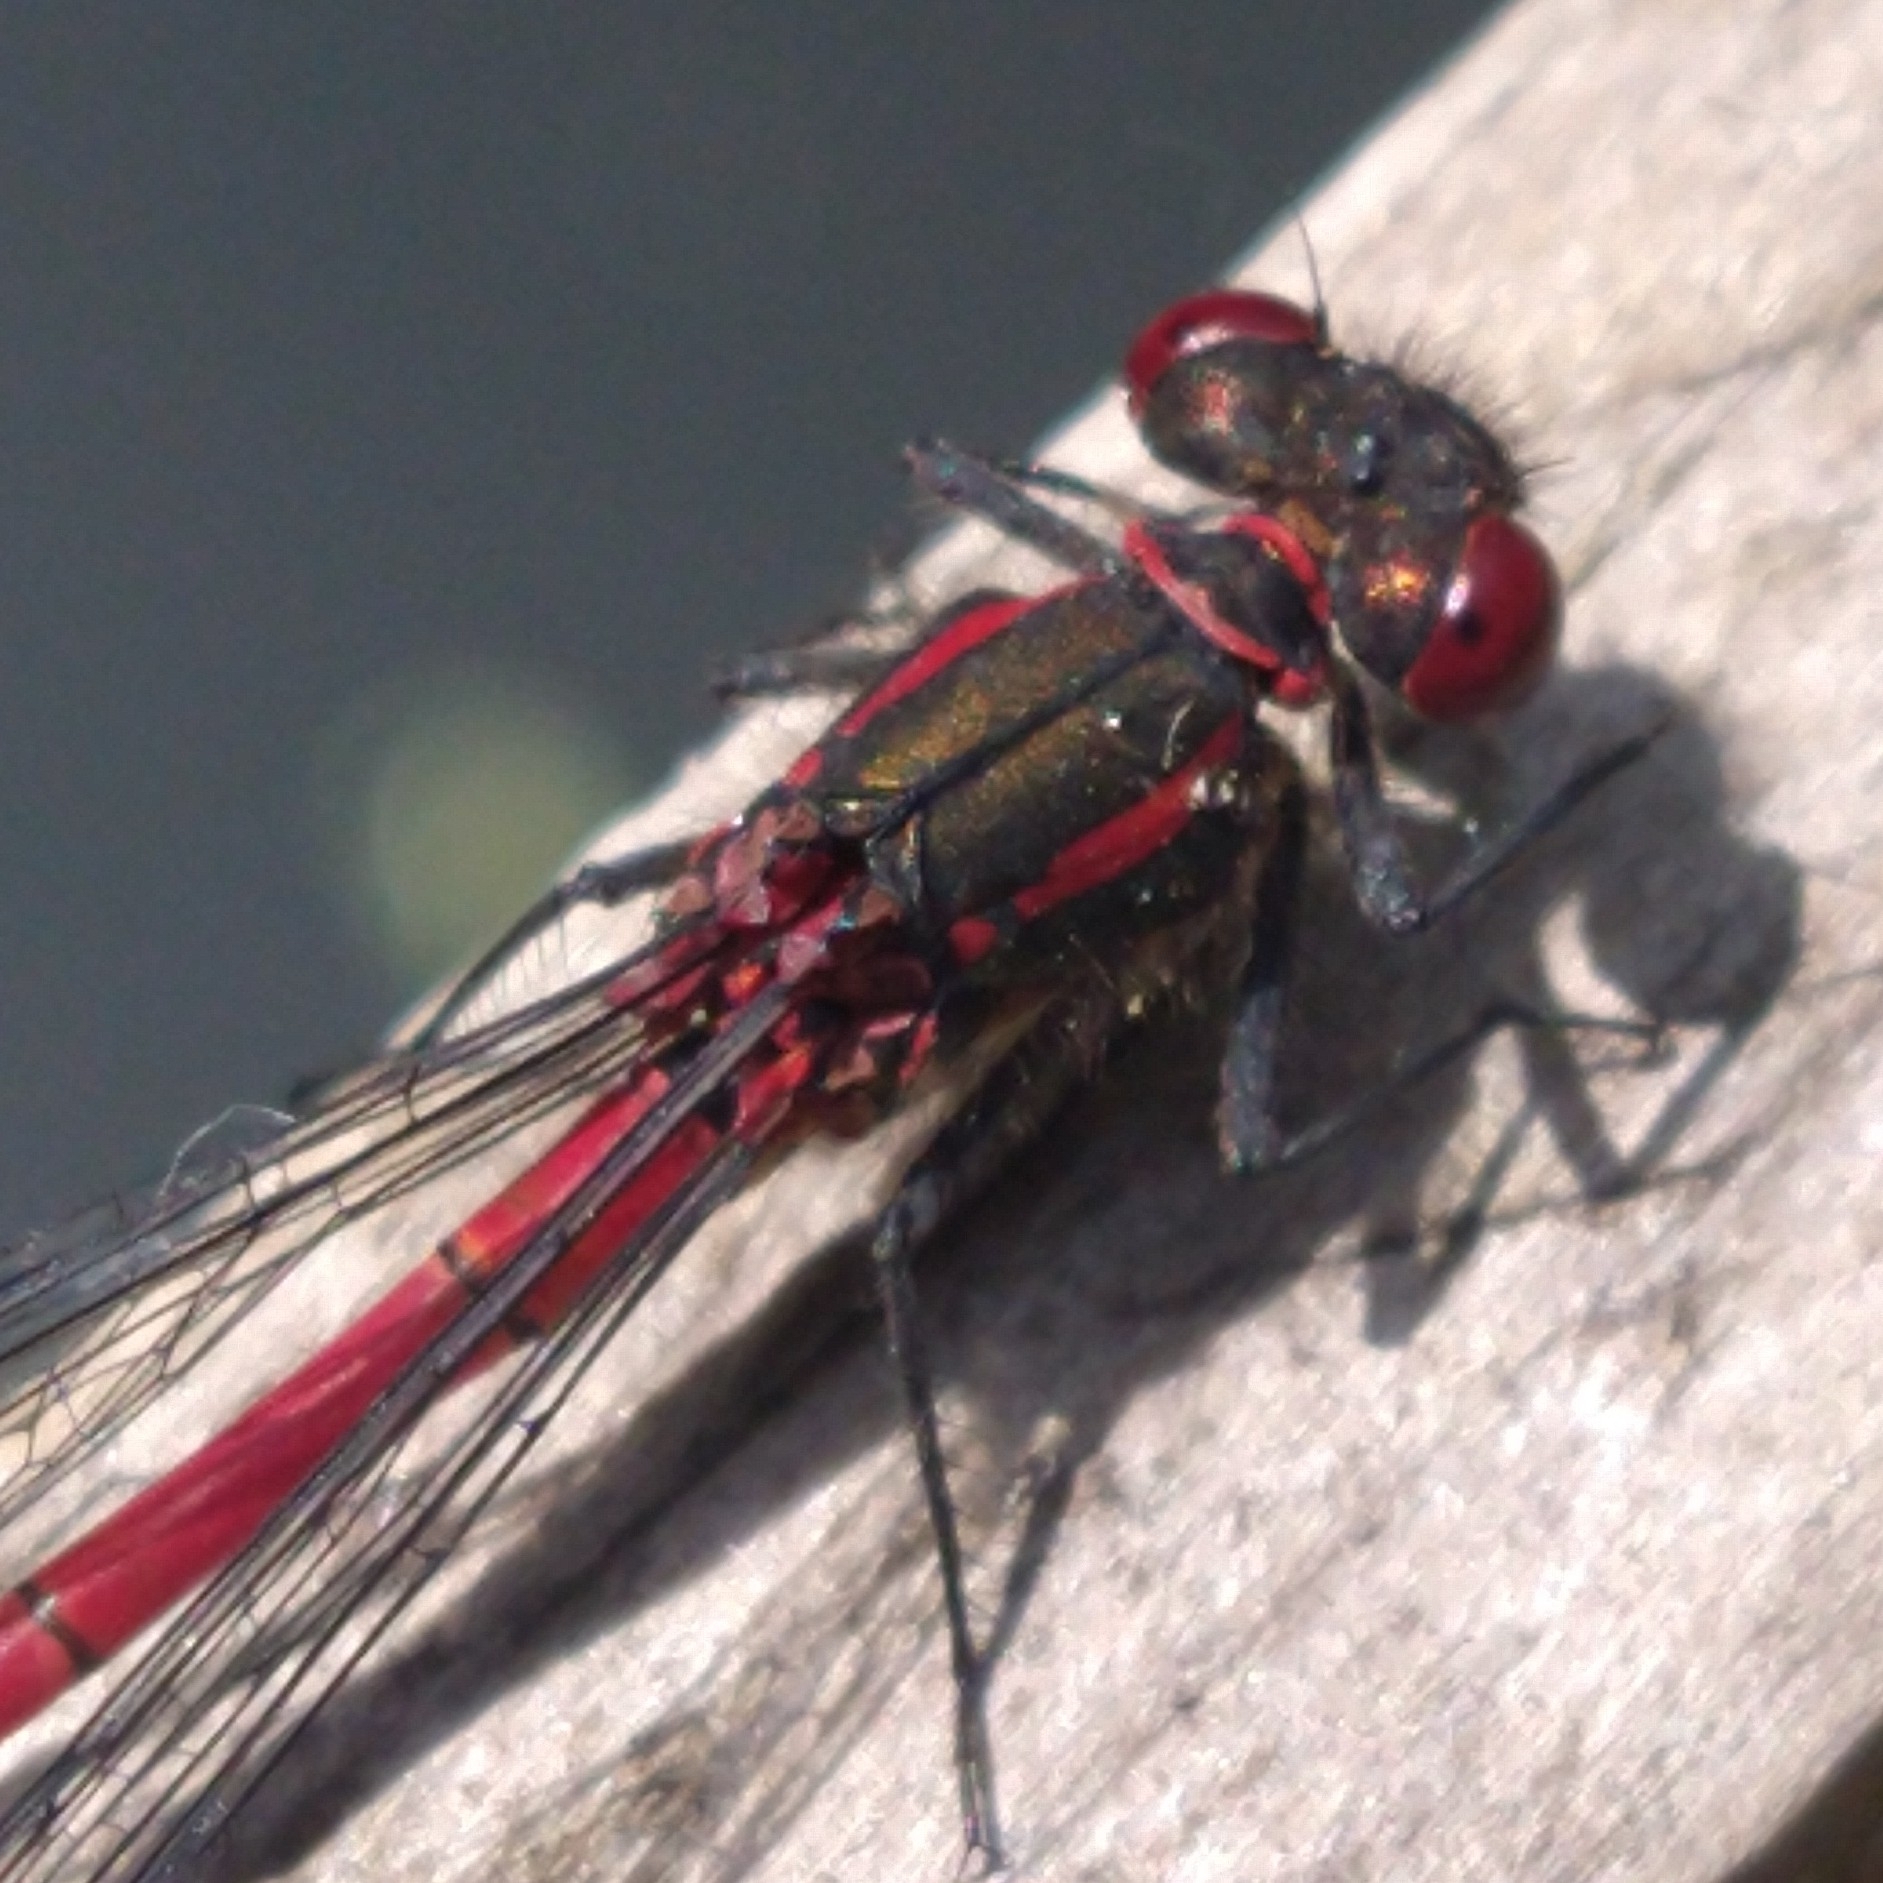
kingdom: Animalia
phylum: Arthropoda
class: Insecta
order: Odonata
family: Coenagrionidae
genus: Pyrrhosoma
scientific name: Pyrrhosoma nymphula
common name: Large red damsel
